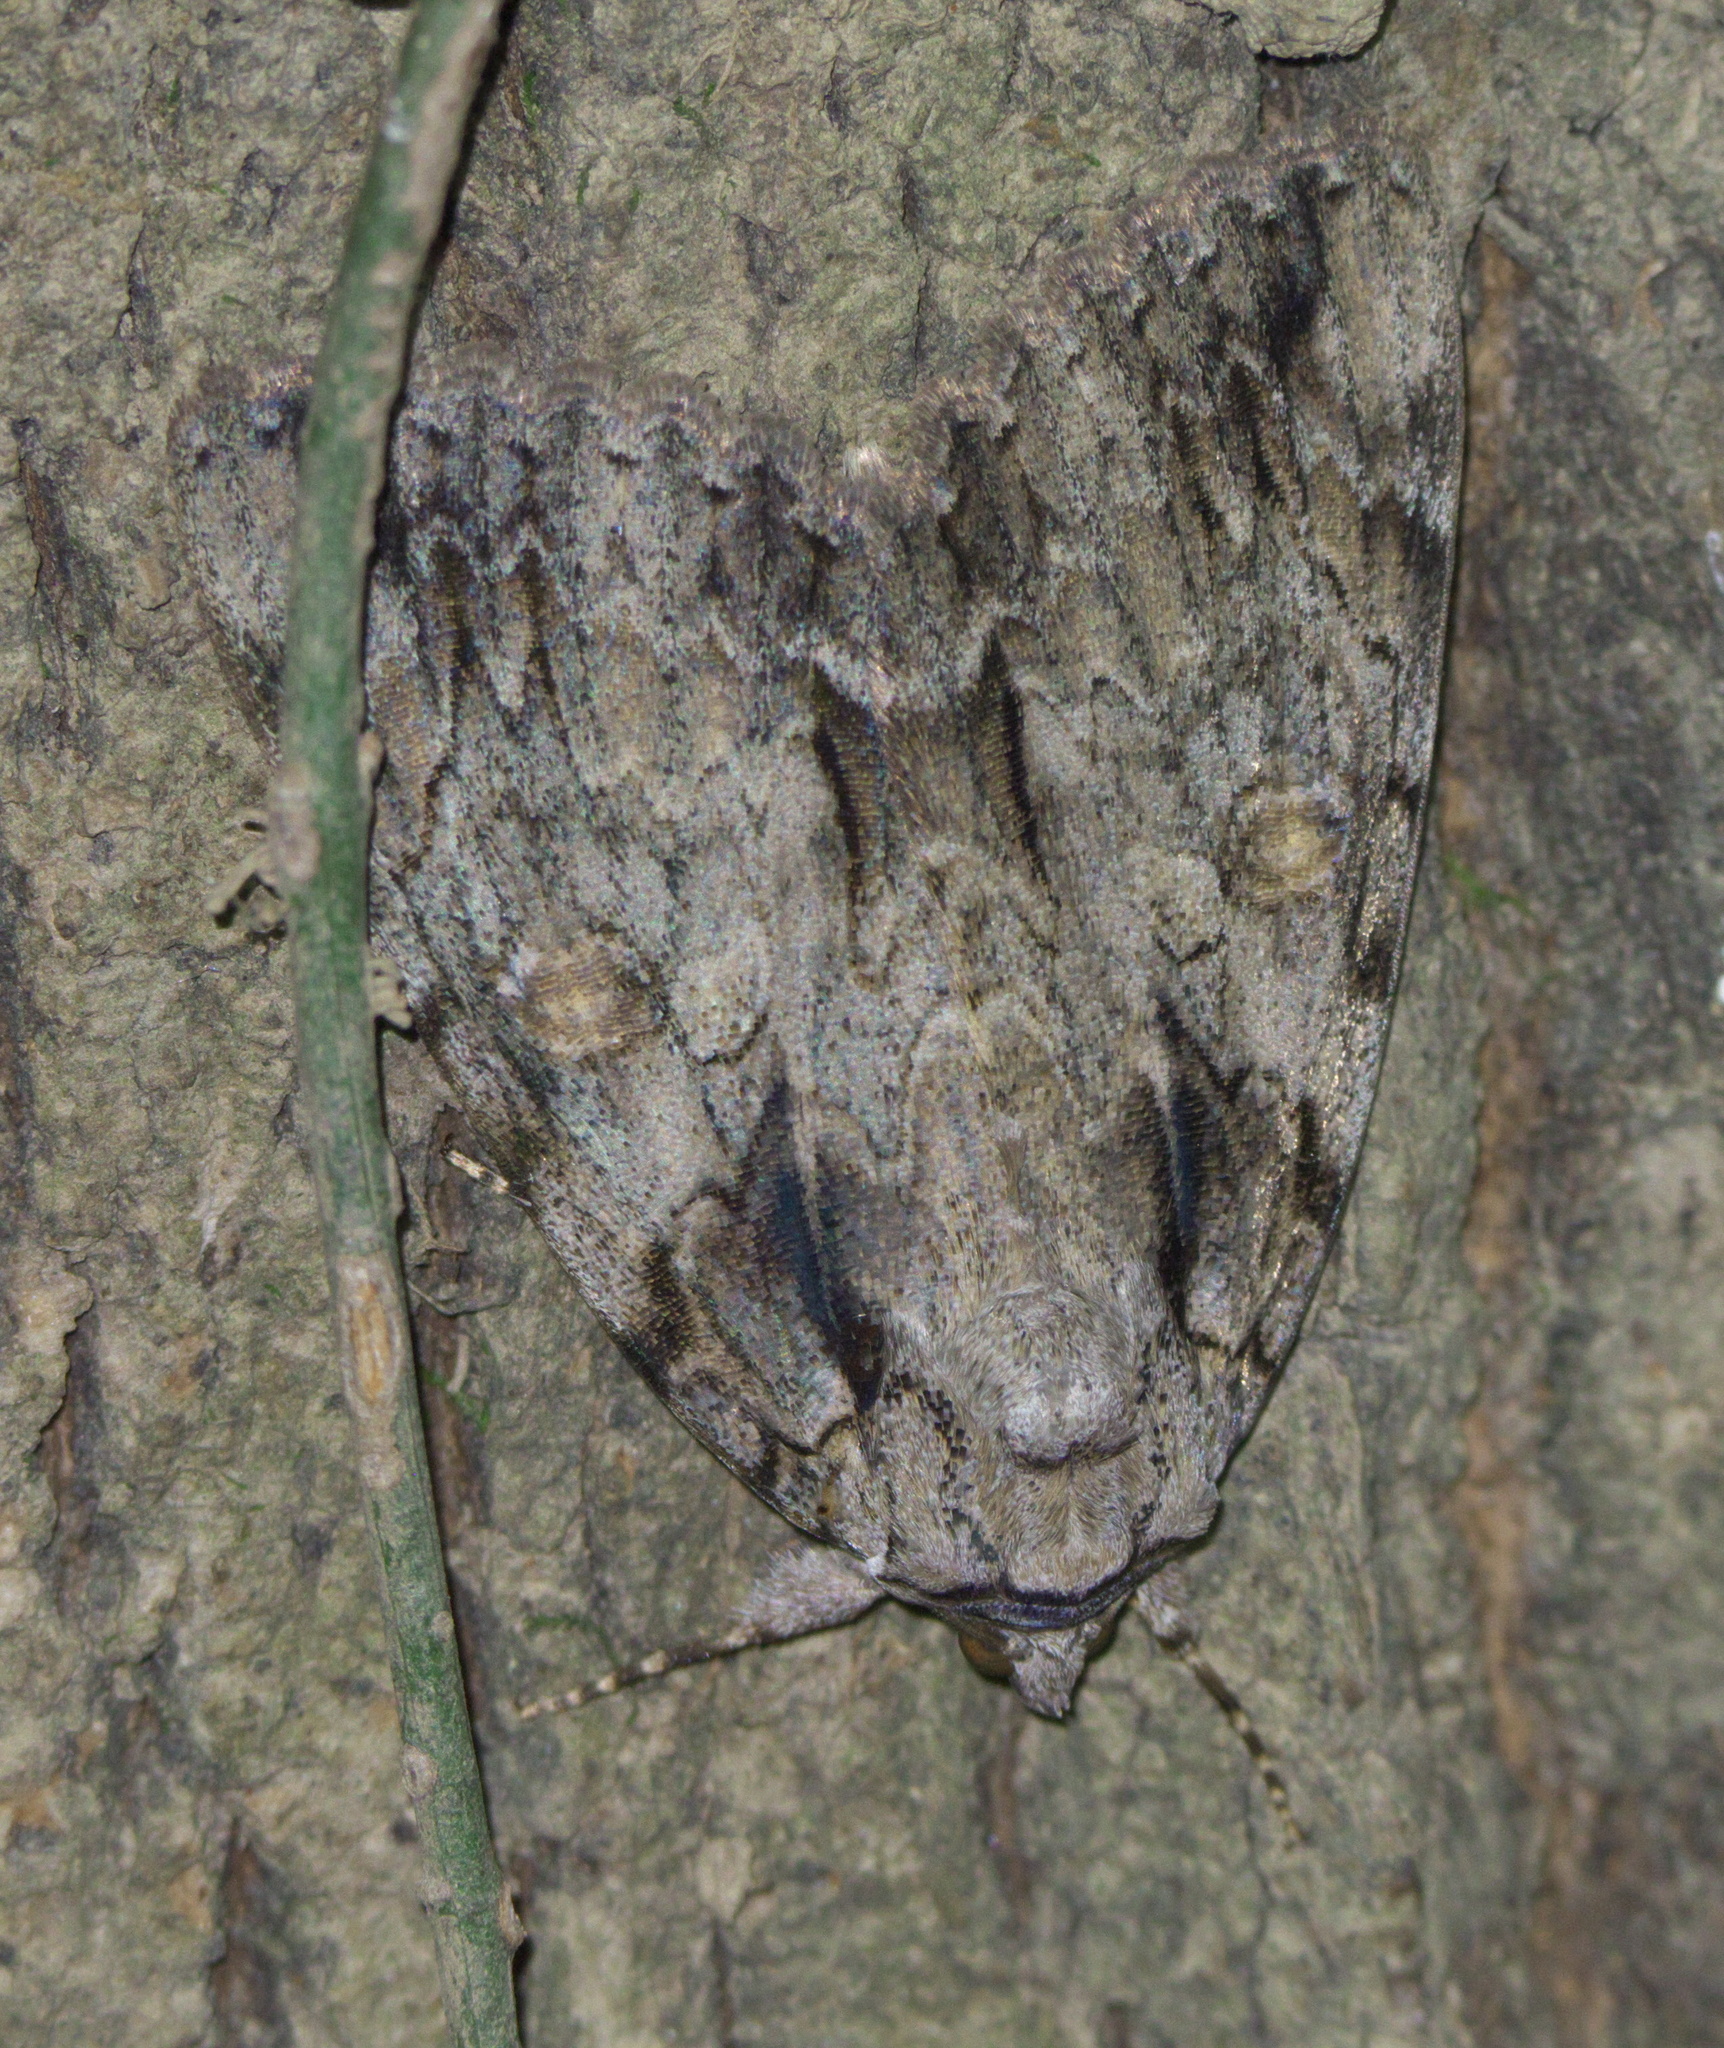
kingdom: Animalia
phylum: Arthropoda
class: Insecta
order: Lepidoptera
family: Erebidae
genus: Catocala
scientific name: Catocala neogama
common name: Bride underwing
